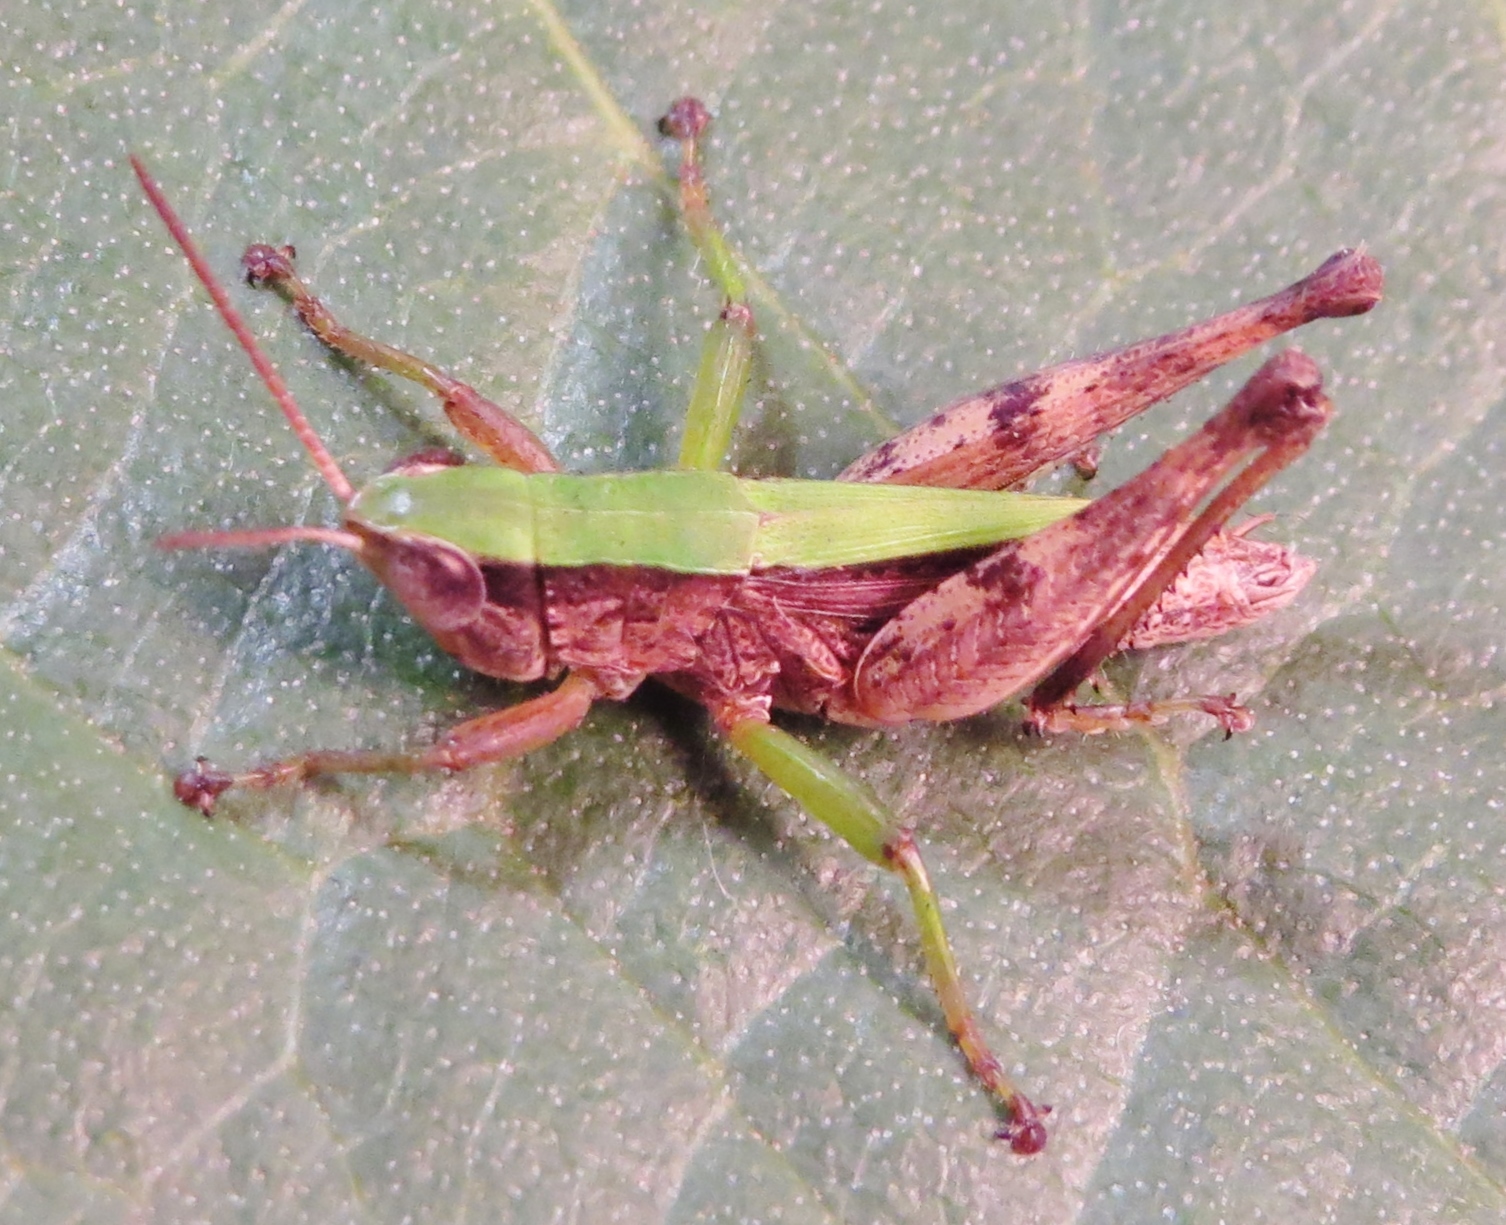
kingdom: Animalia
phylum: Arthropoda
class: Insecta
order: Orthoptera
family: Acrididae
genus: Dichromorpha
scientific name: Dichromorpha viridis
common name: Short-winged green grasshopper
